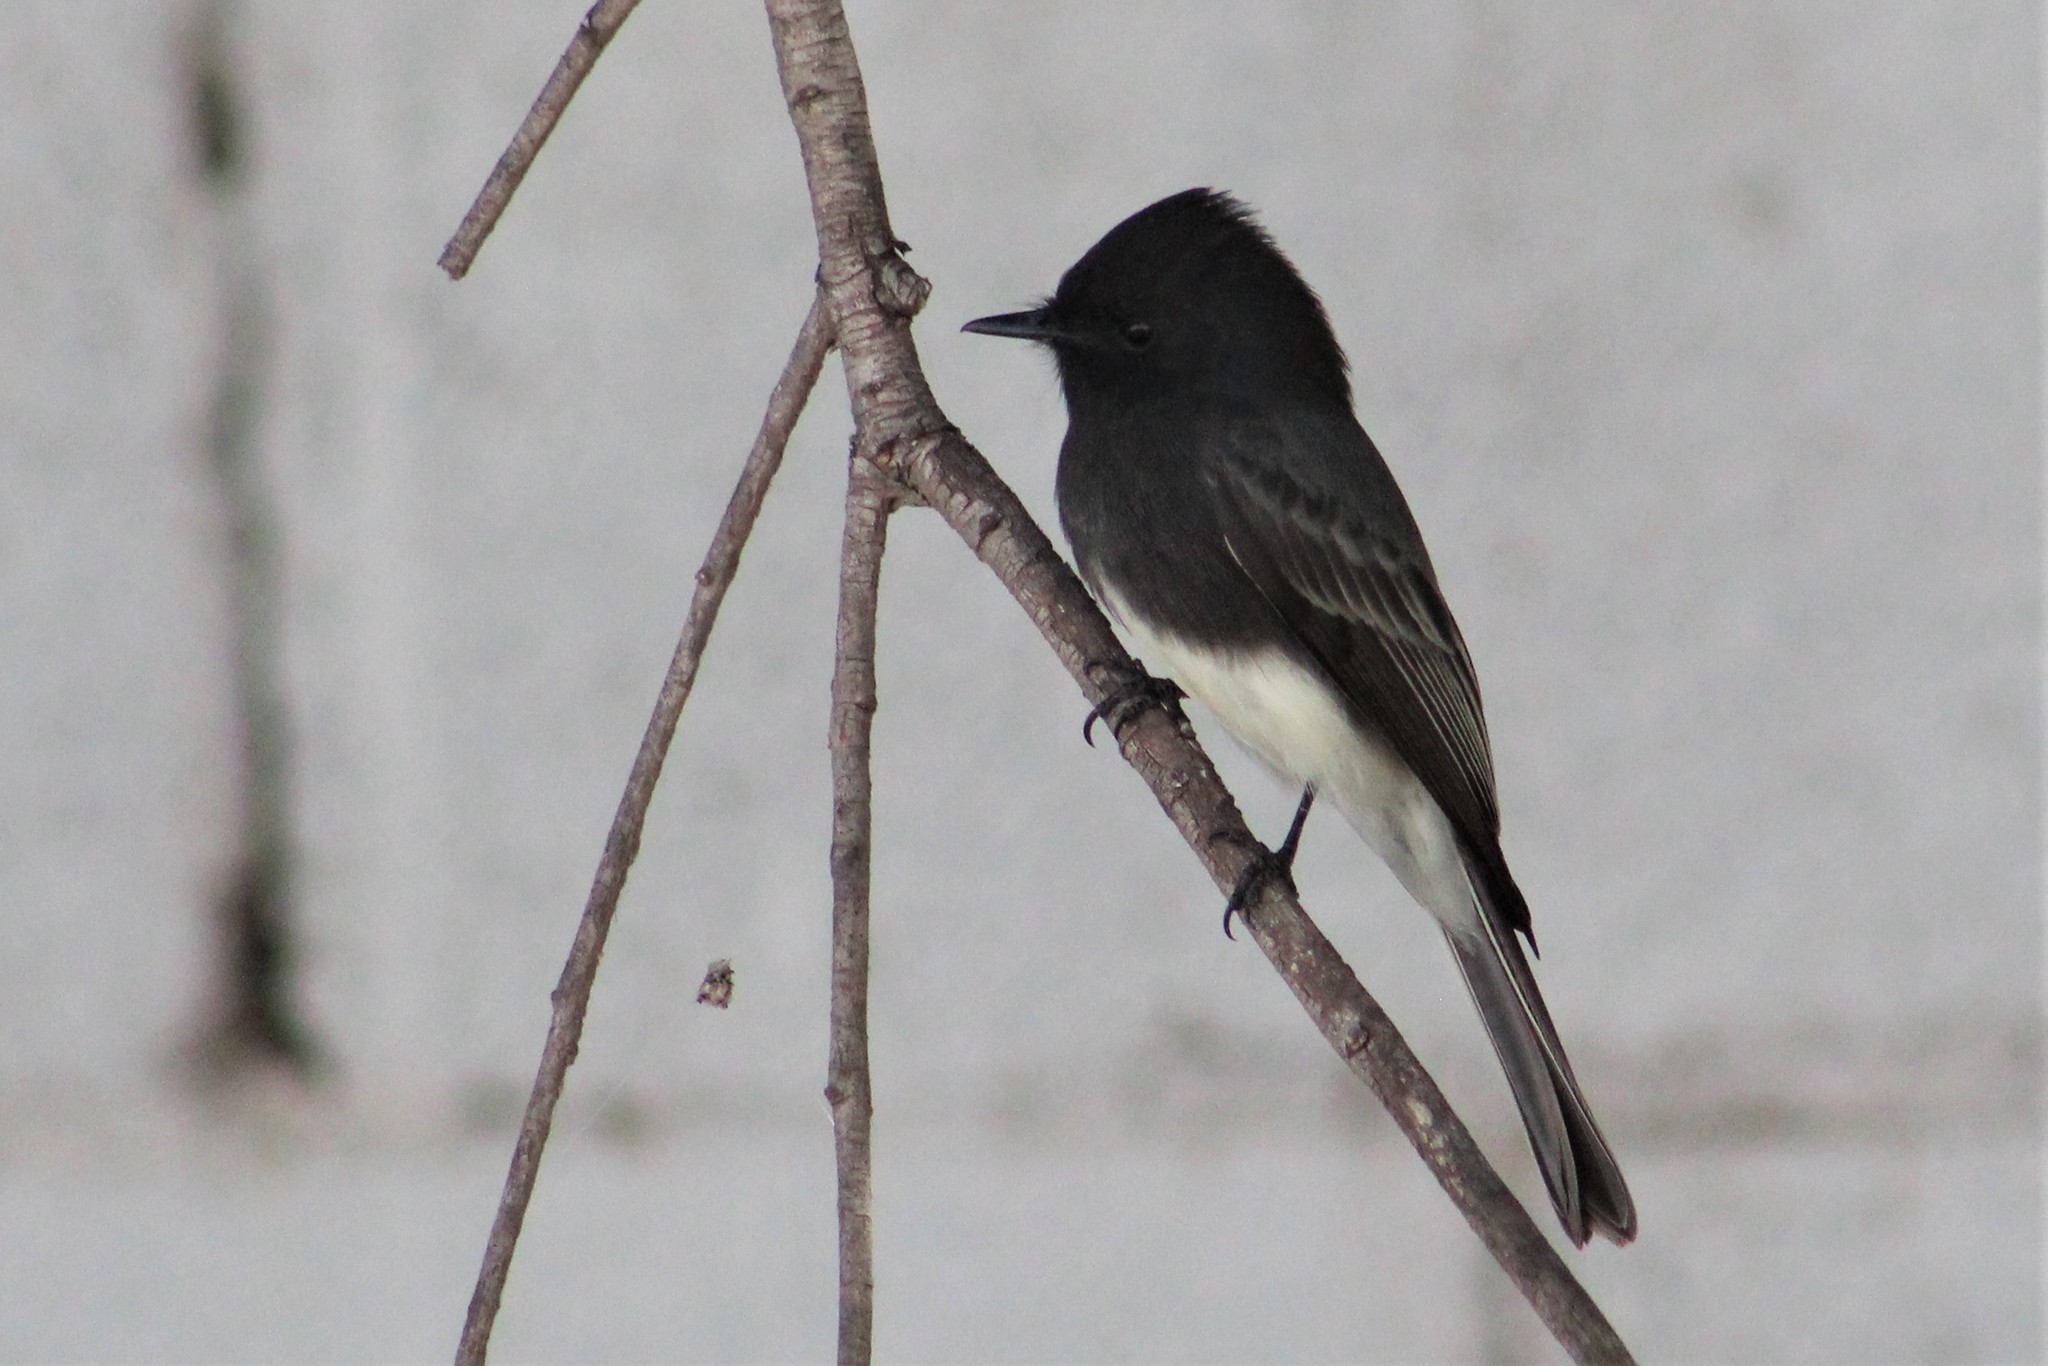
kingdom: Animalia
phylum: Chordata
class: Aves
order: Passeriformes
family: Tyrannidae
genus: Sayornis
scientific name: Sayornis nigricans
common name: Black phoebe
